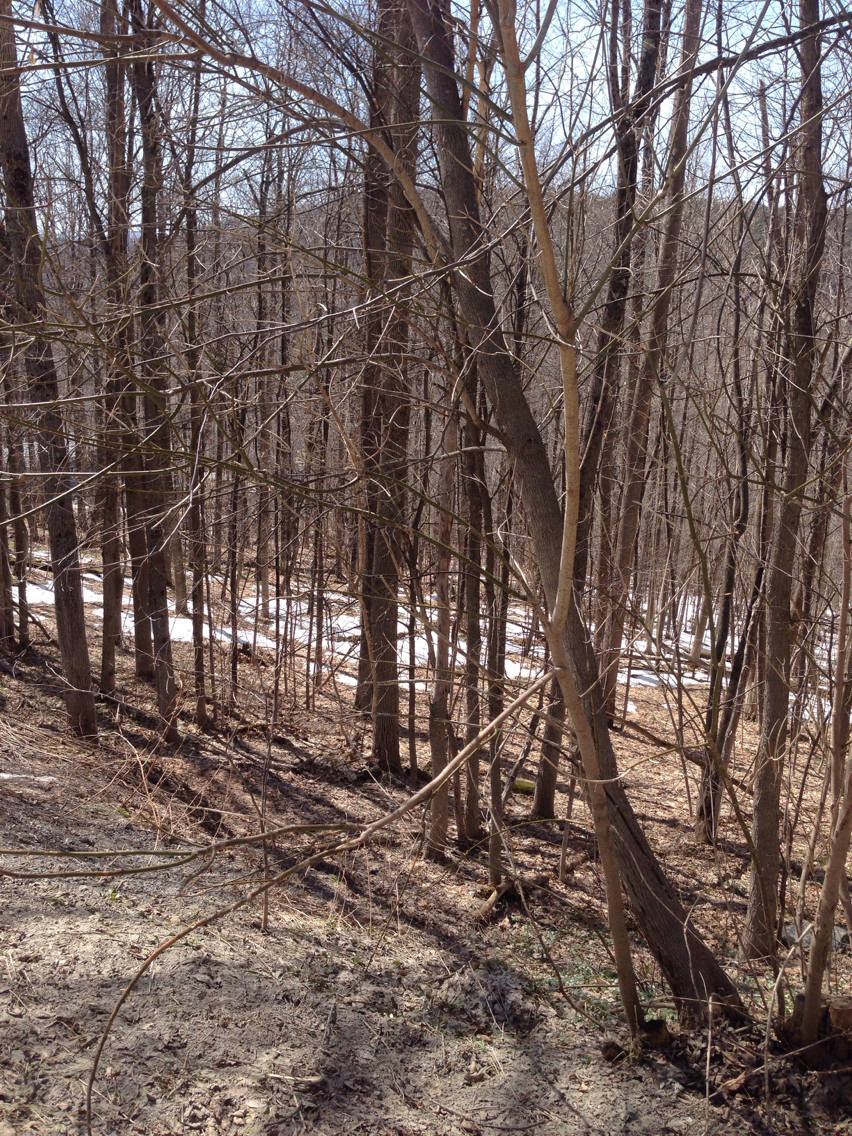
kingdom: Plantae
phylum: Tracheophyta
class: Magnoliopsida
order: Sapindales
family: Sapindaceae
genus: Acer
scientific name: Acer negundo
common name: Ashleaf maple
